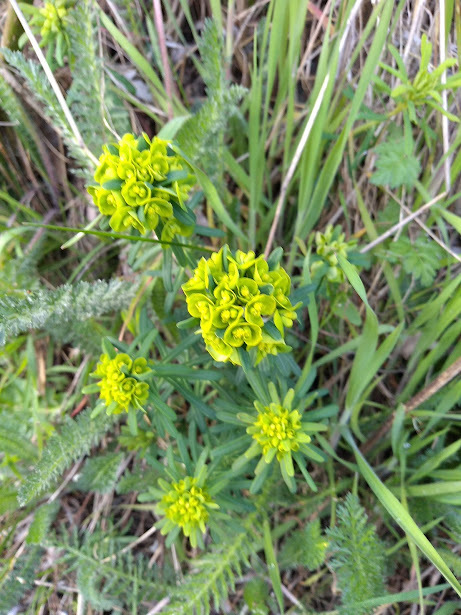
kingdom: Plantae
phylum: Tracheophyta
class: Magnoliopsida
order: Malpighiales
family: Euphorbiaceae
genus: Euphorbia
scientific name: Euphorbia cyparissias
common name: Cypress spurge
